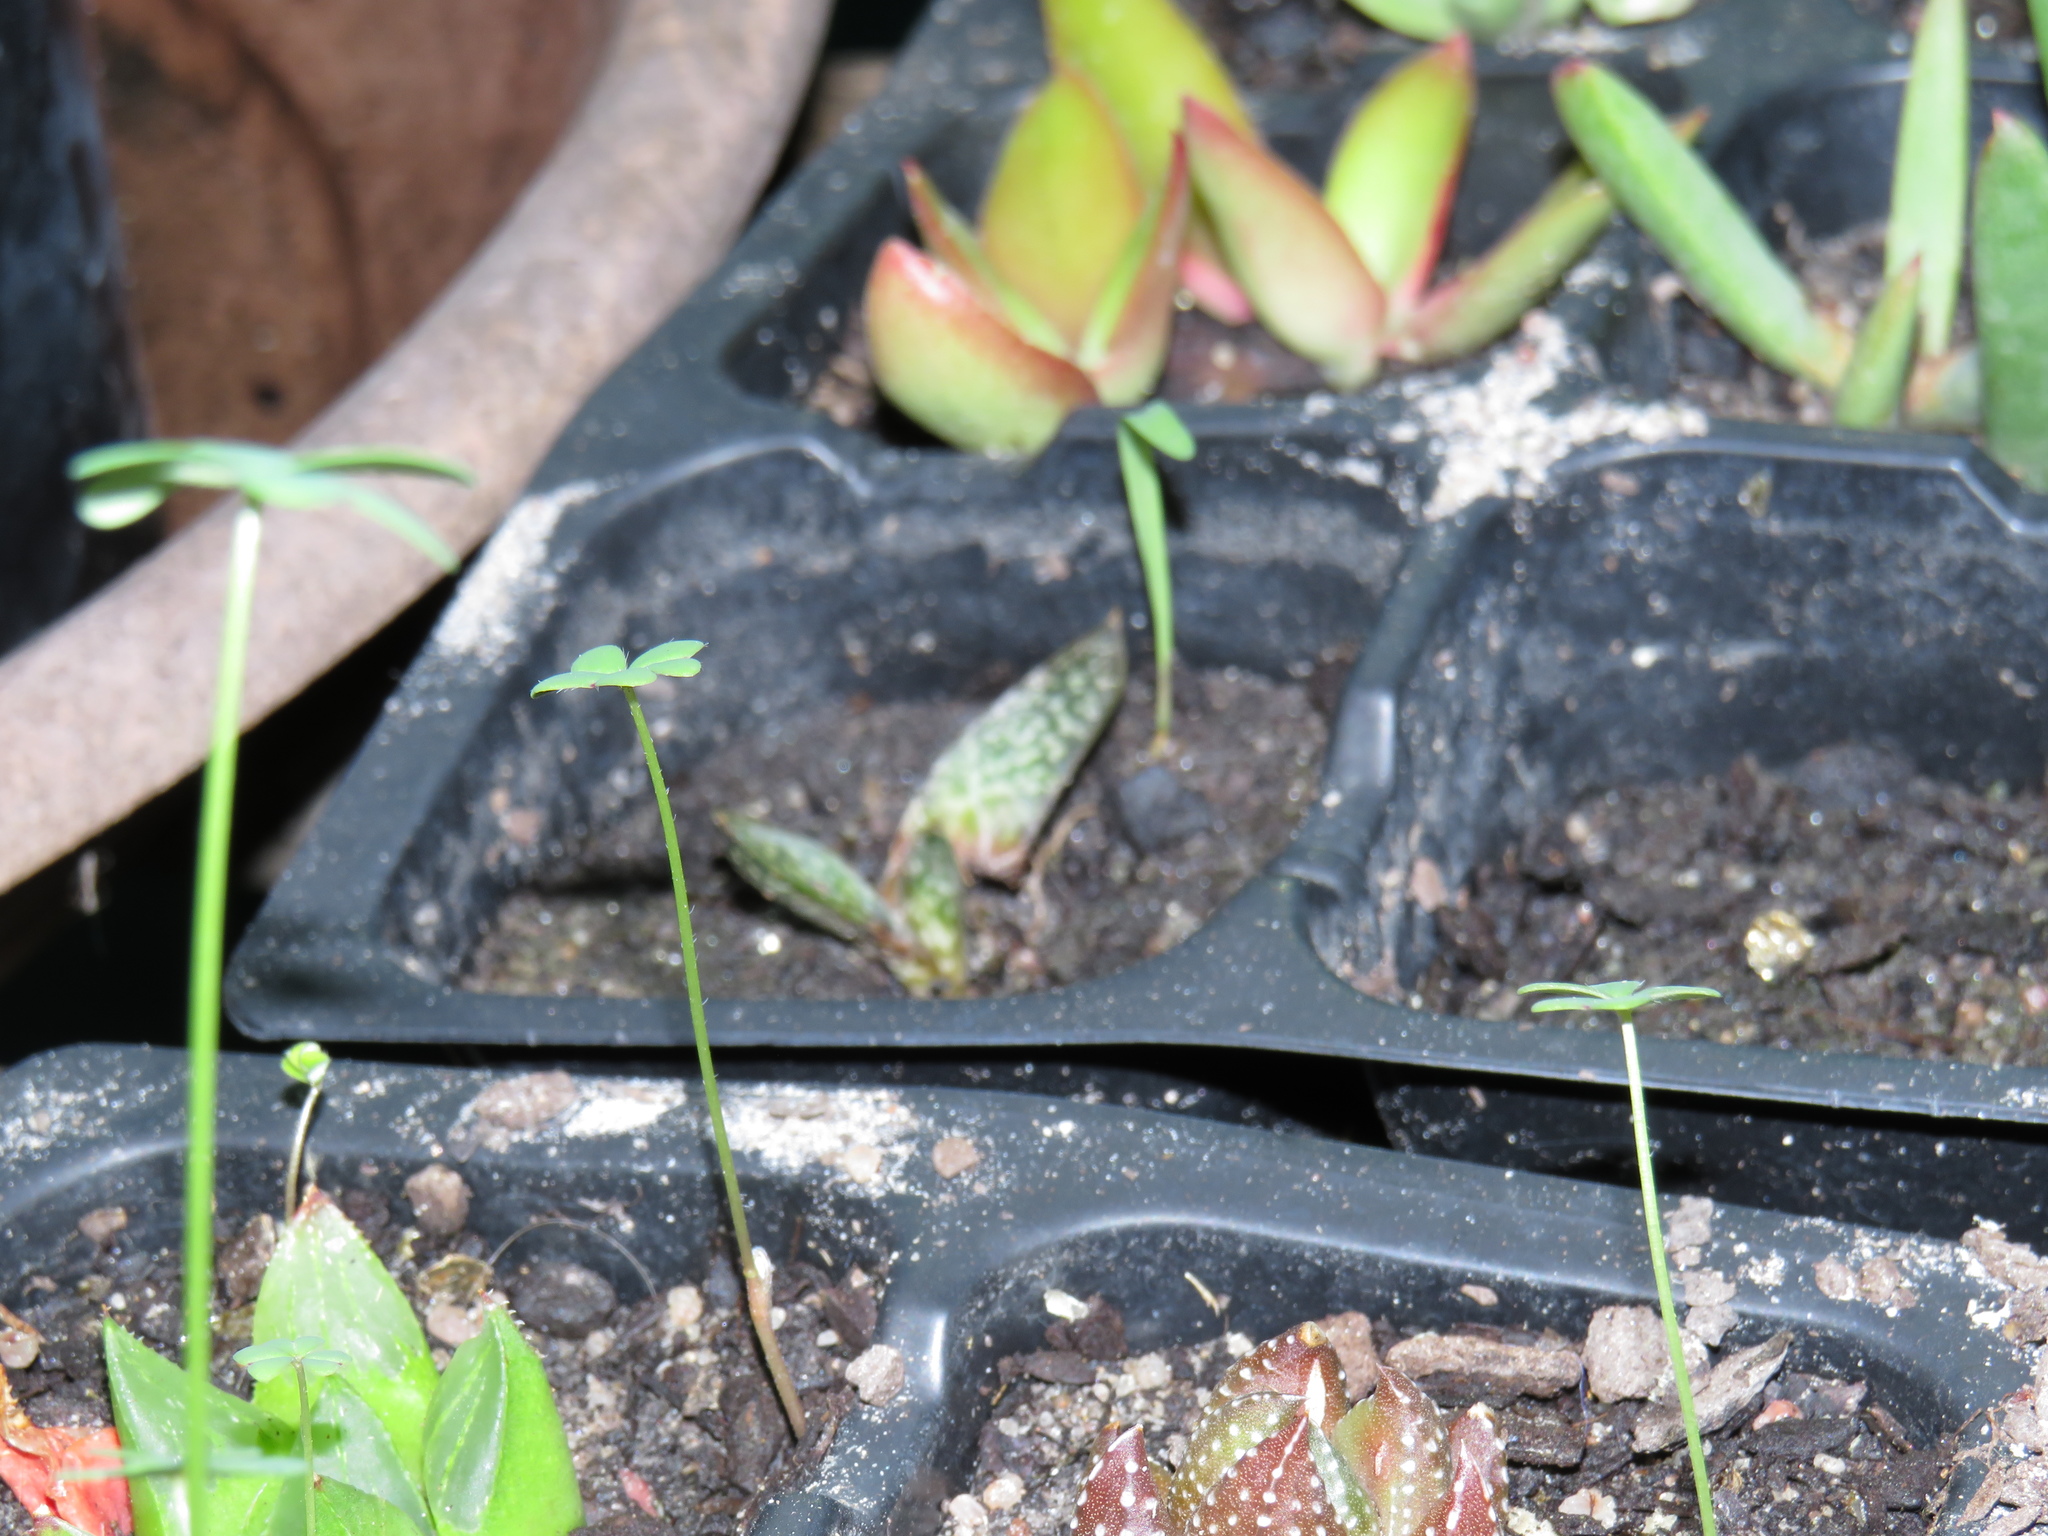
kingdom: Plantae
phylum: Tracheophyta
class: Magnoliopsida
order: Oxalidales
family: Oxalidaceae
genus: Oxalis
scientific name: Oxalis pes-caprae
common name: Bermuda-buttercup
